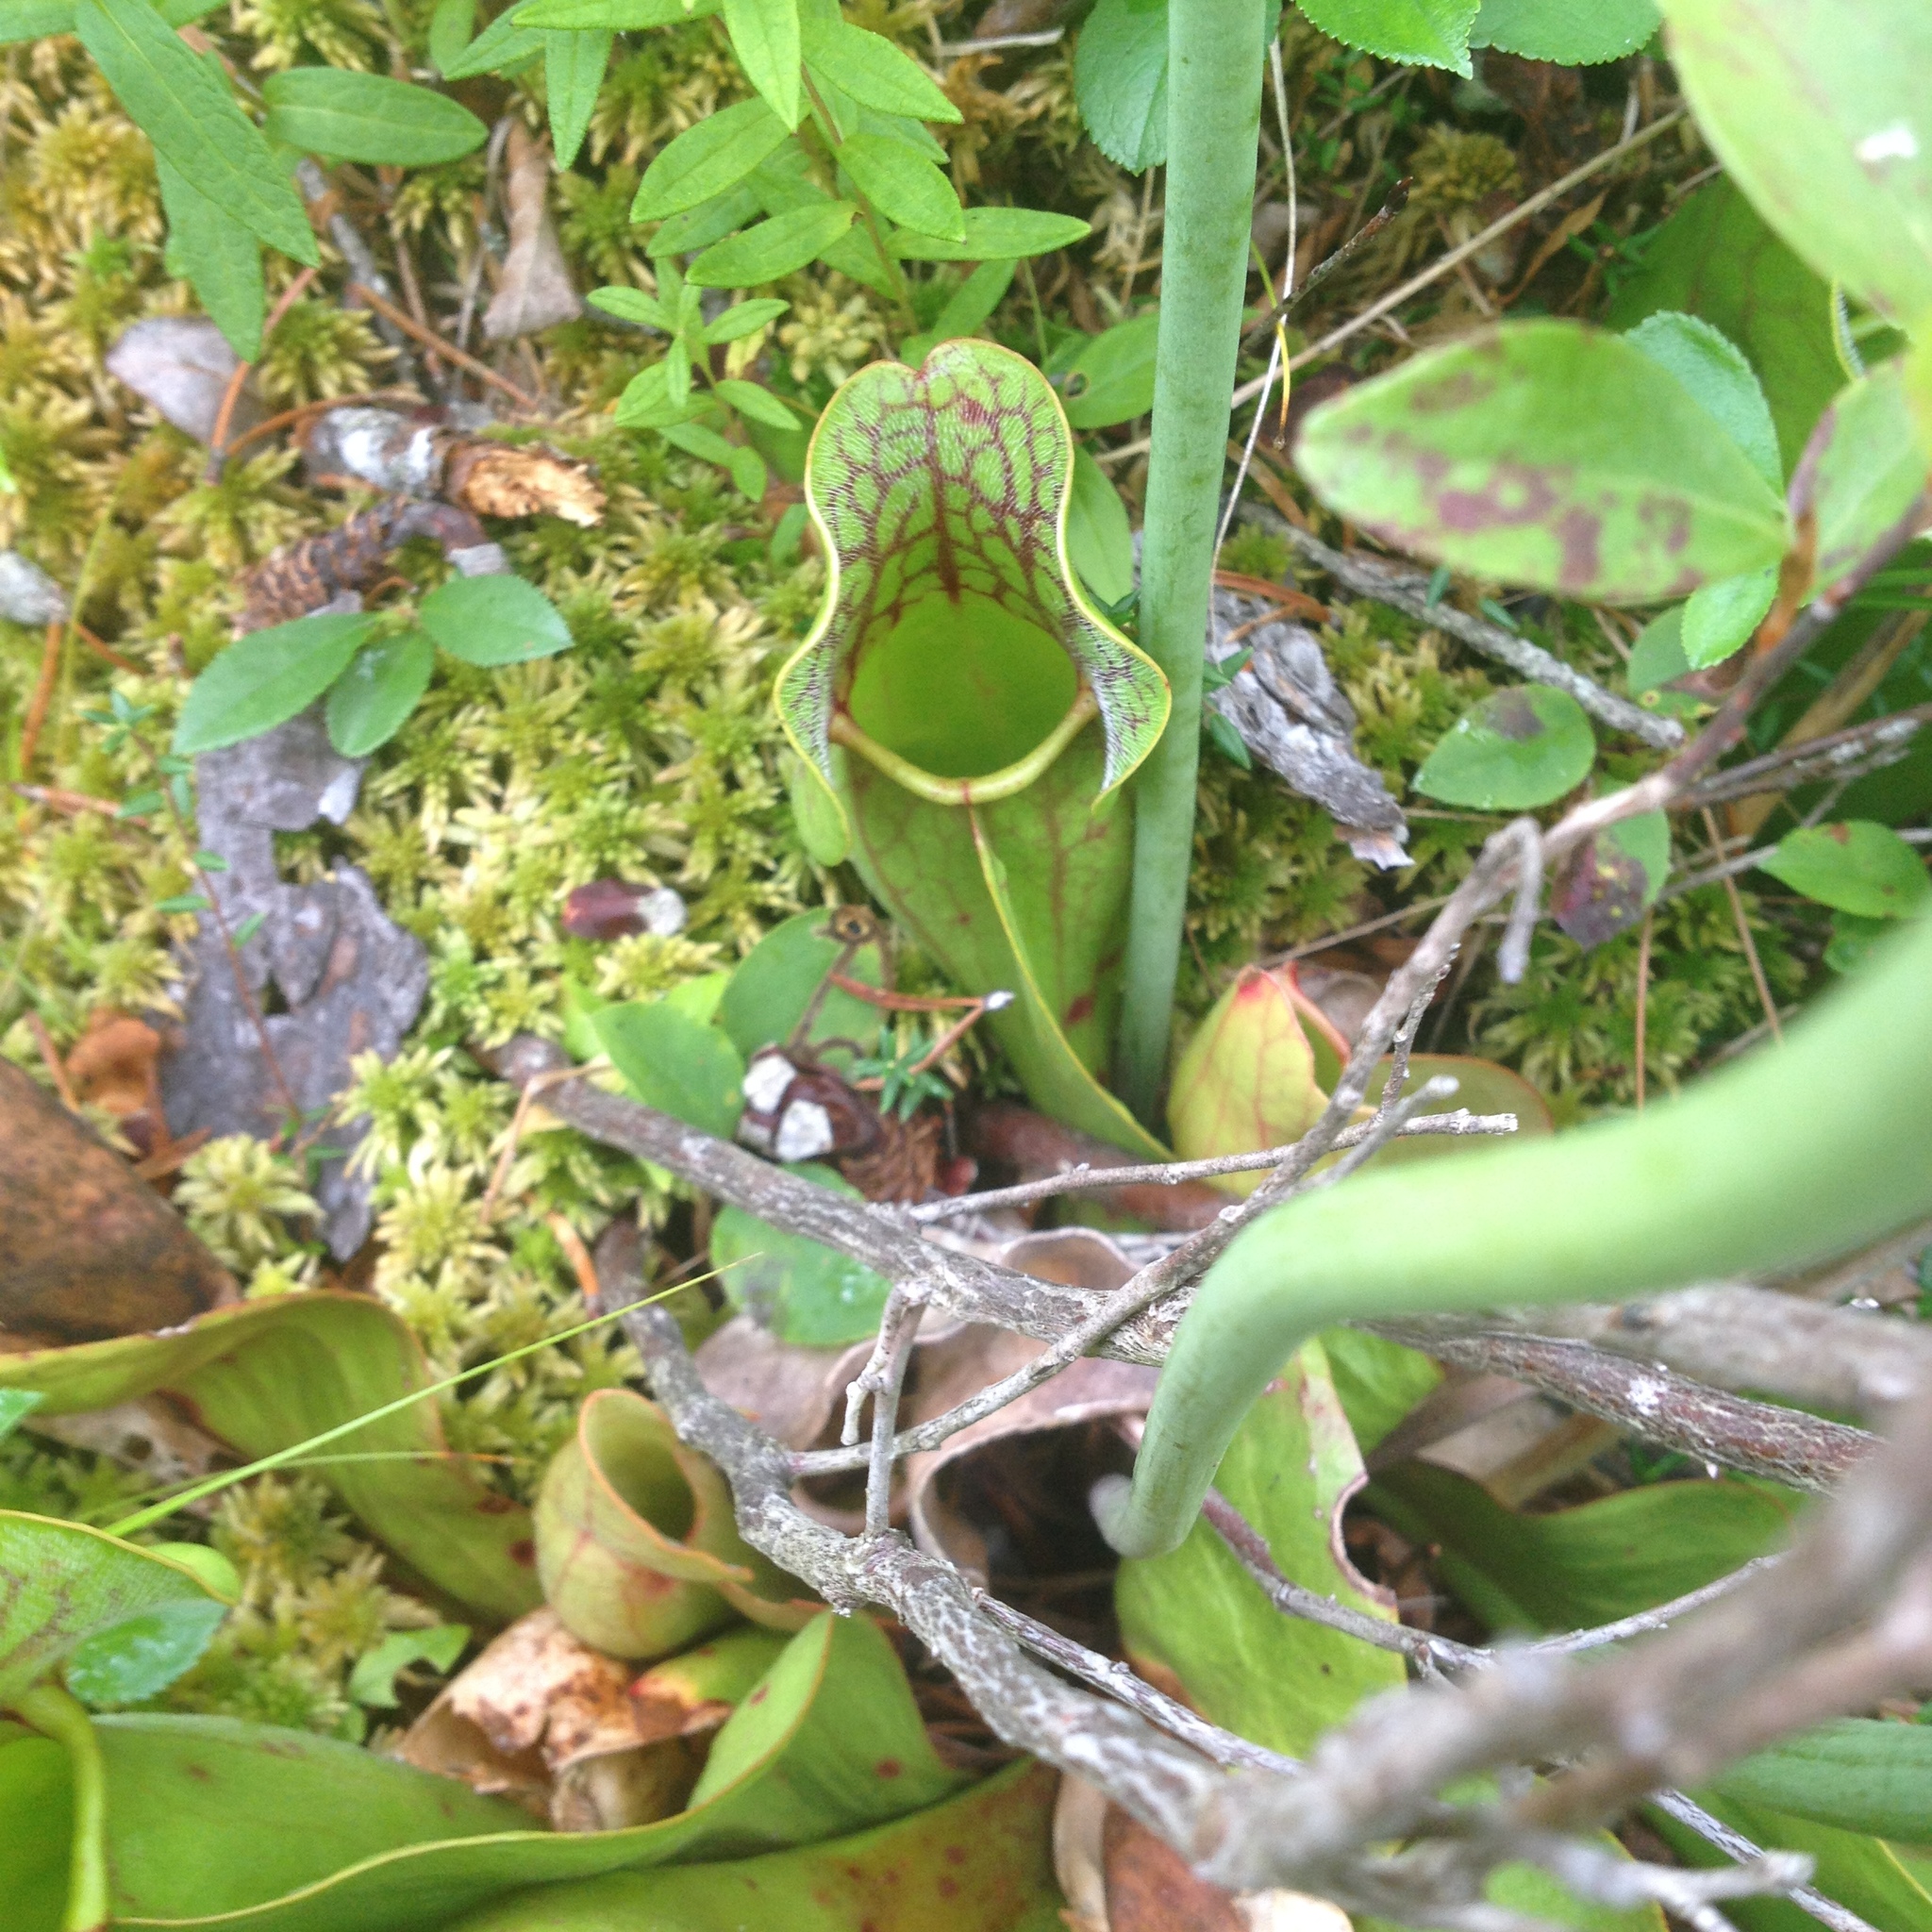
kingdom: Plantae
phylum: Tracheophyta
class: Magnoliopsida
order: Ericales
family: Sarraceniaceae
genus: Sarracenia
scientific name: Sarracenia purpurea
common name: Pitcherplant
